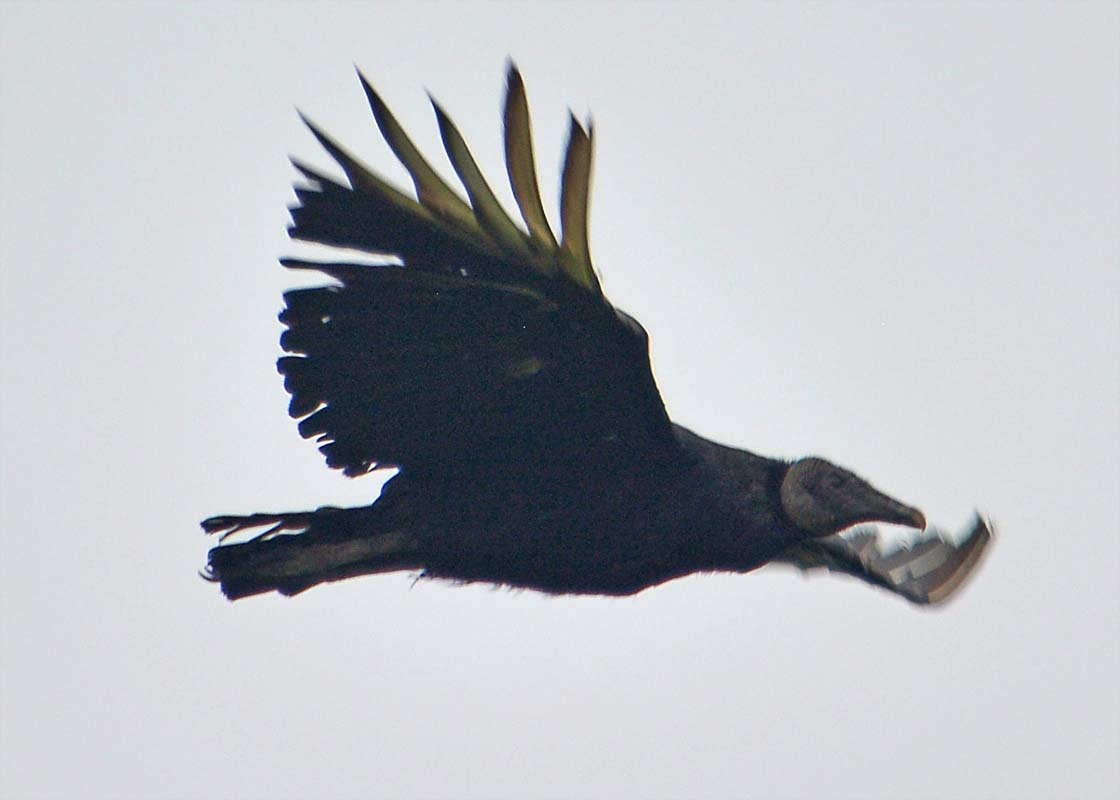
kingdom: Animalia
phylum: Chordata
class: Aves
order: Accipitriformes
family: Cathartidae
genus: Coragyps
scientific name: Coragyps atratus
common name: Black vulture
